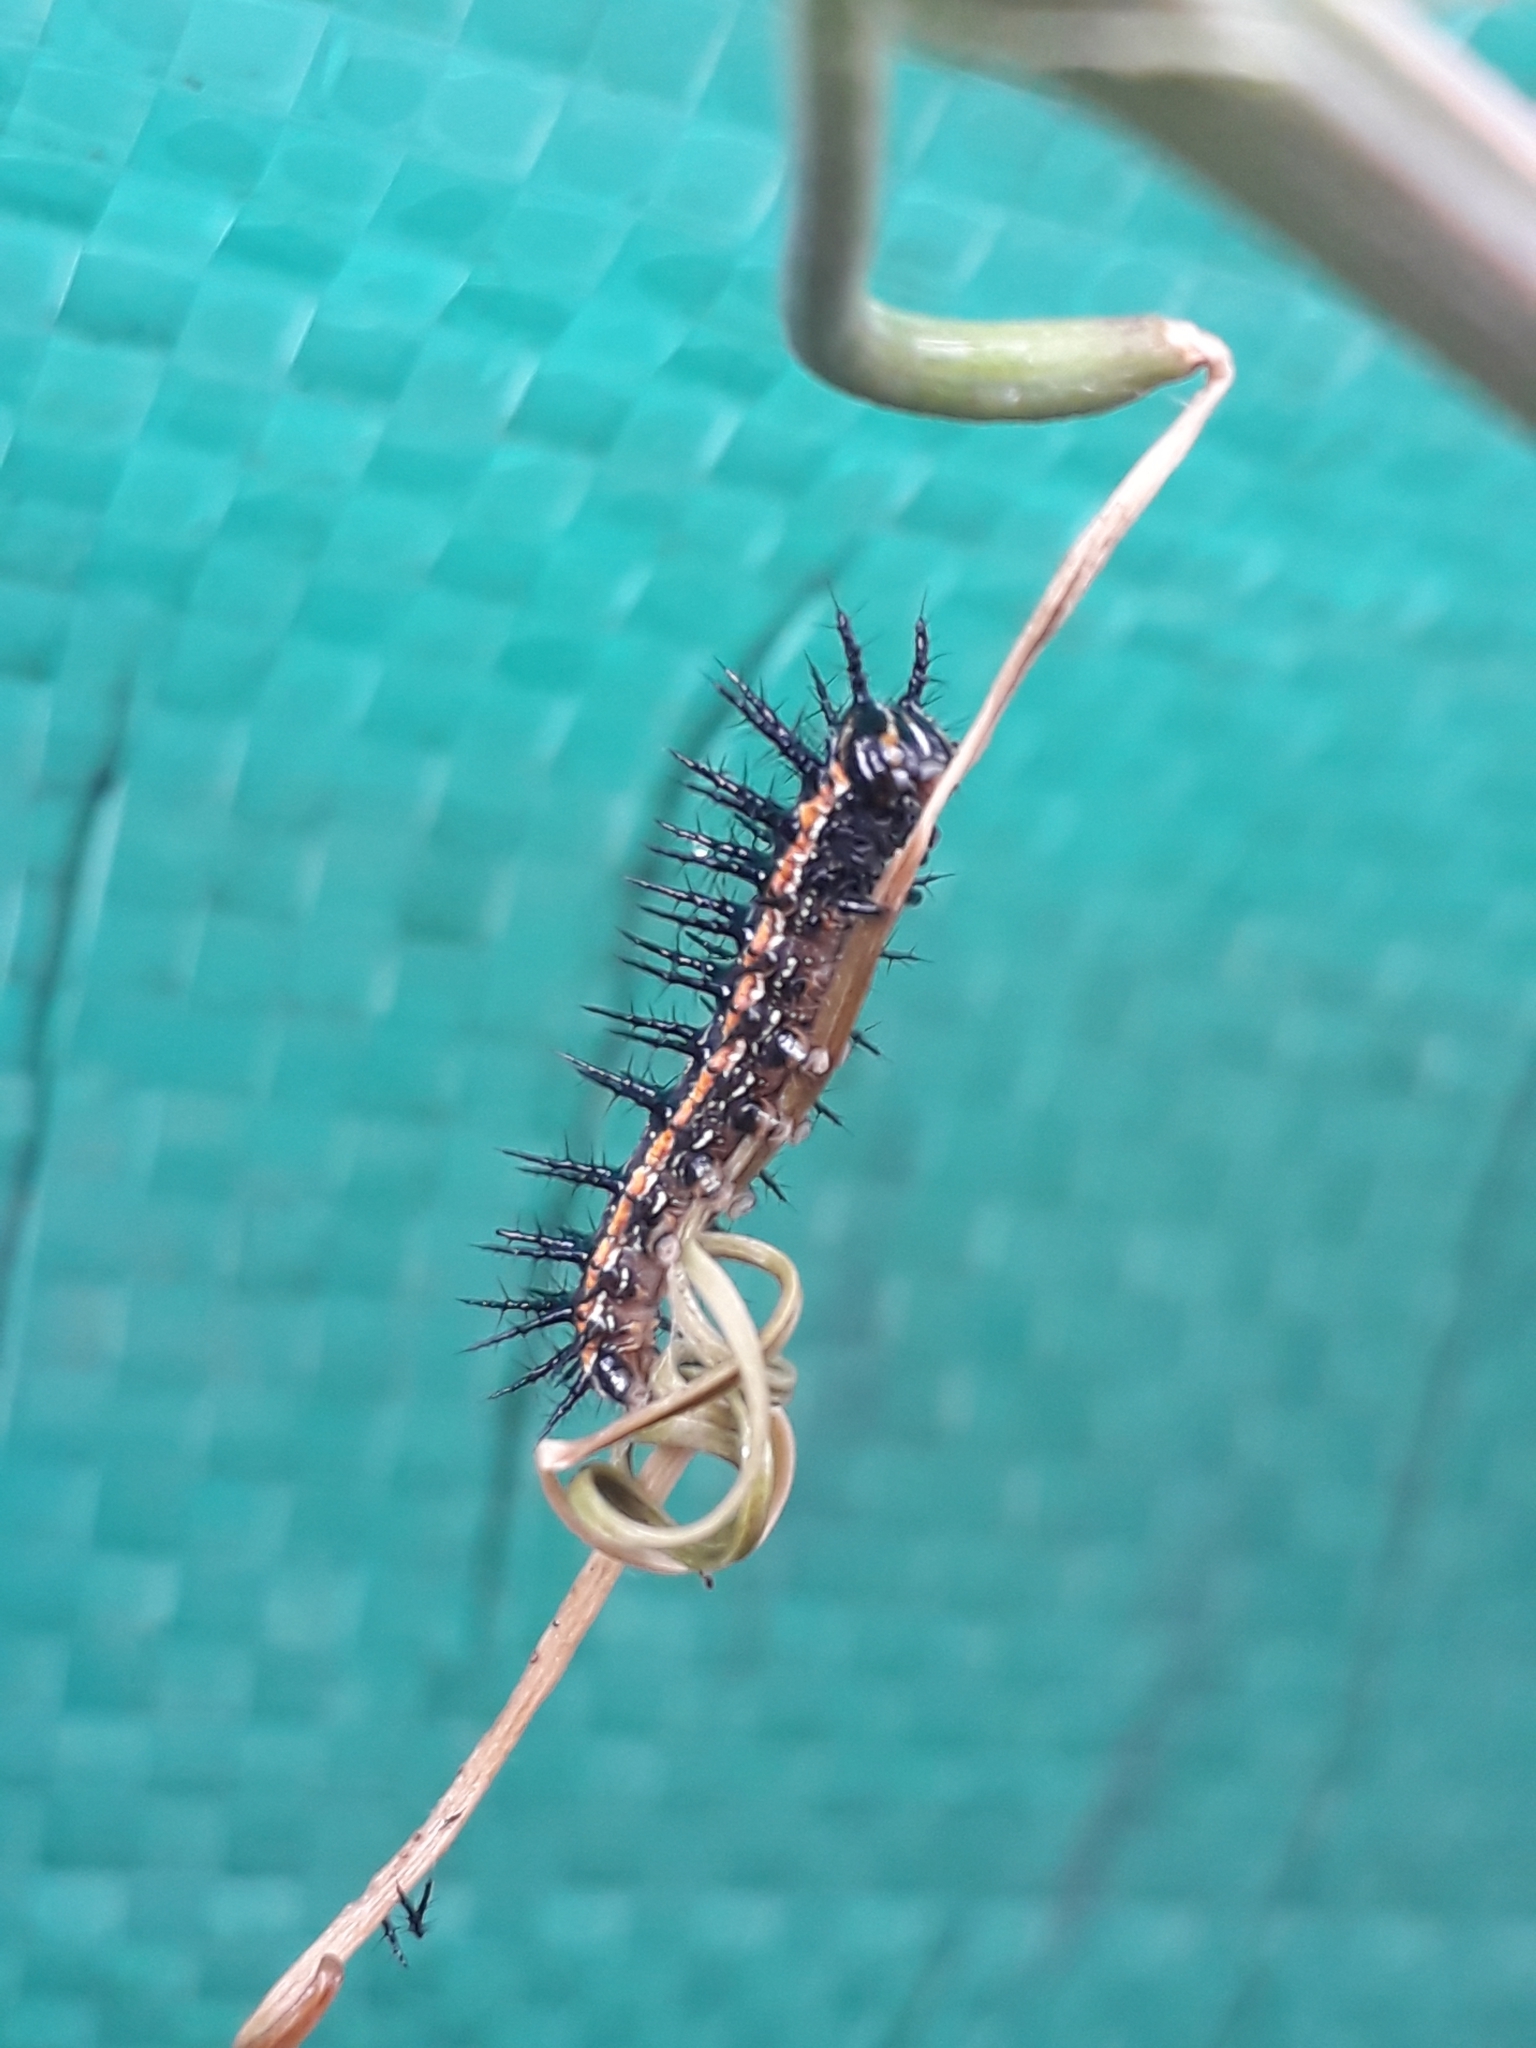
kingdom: Animalia
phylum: Arthropoda
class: Insecta
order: Lepidoptera
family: Nymphalidae
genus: Dione
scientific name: Dione vanillae
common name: Gulf fritillary
